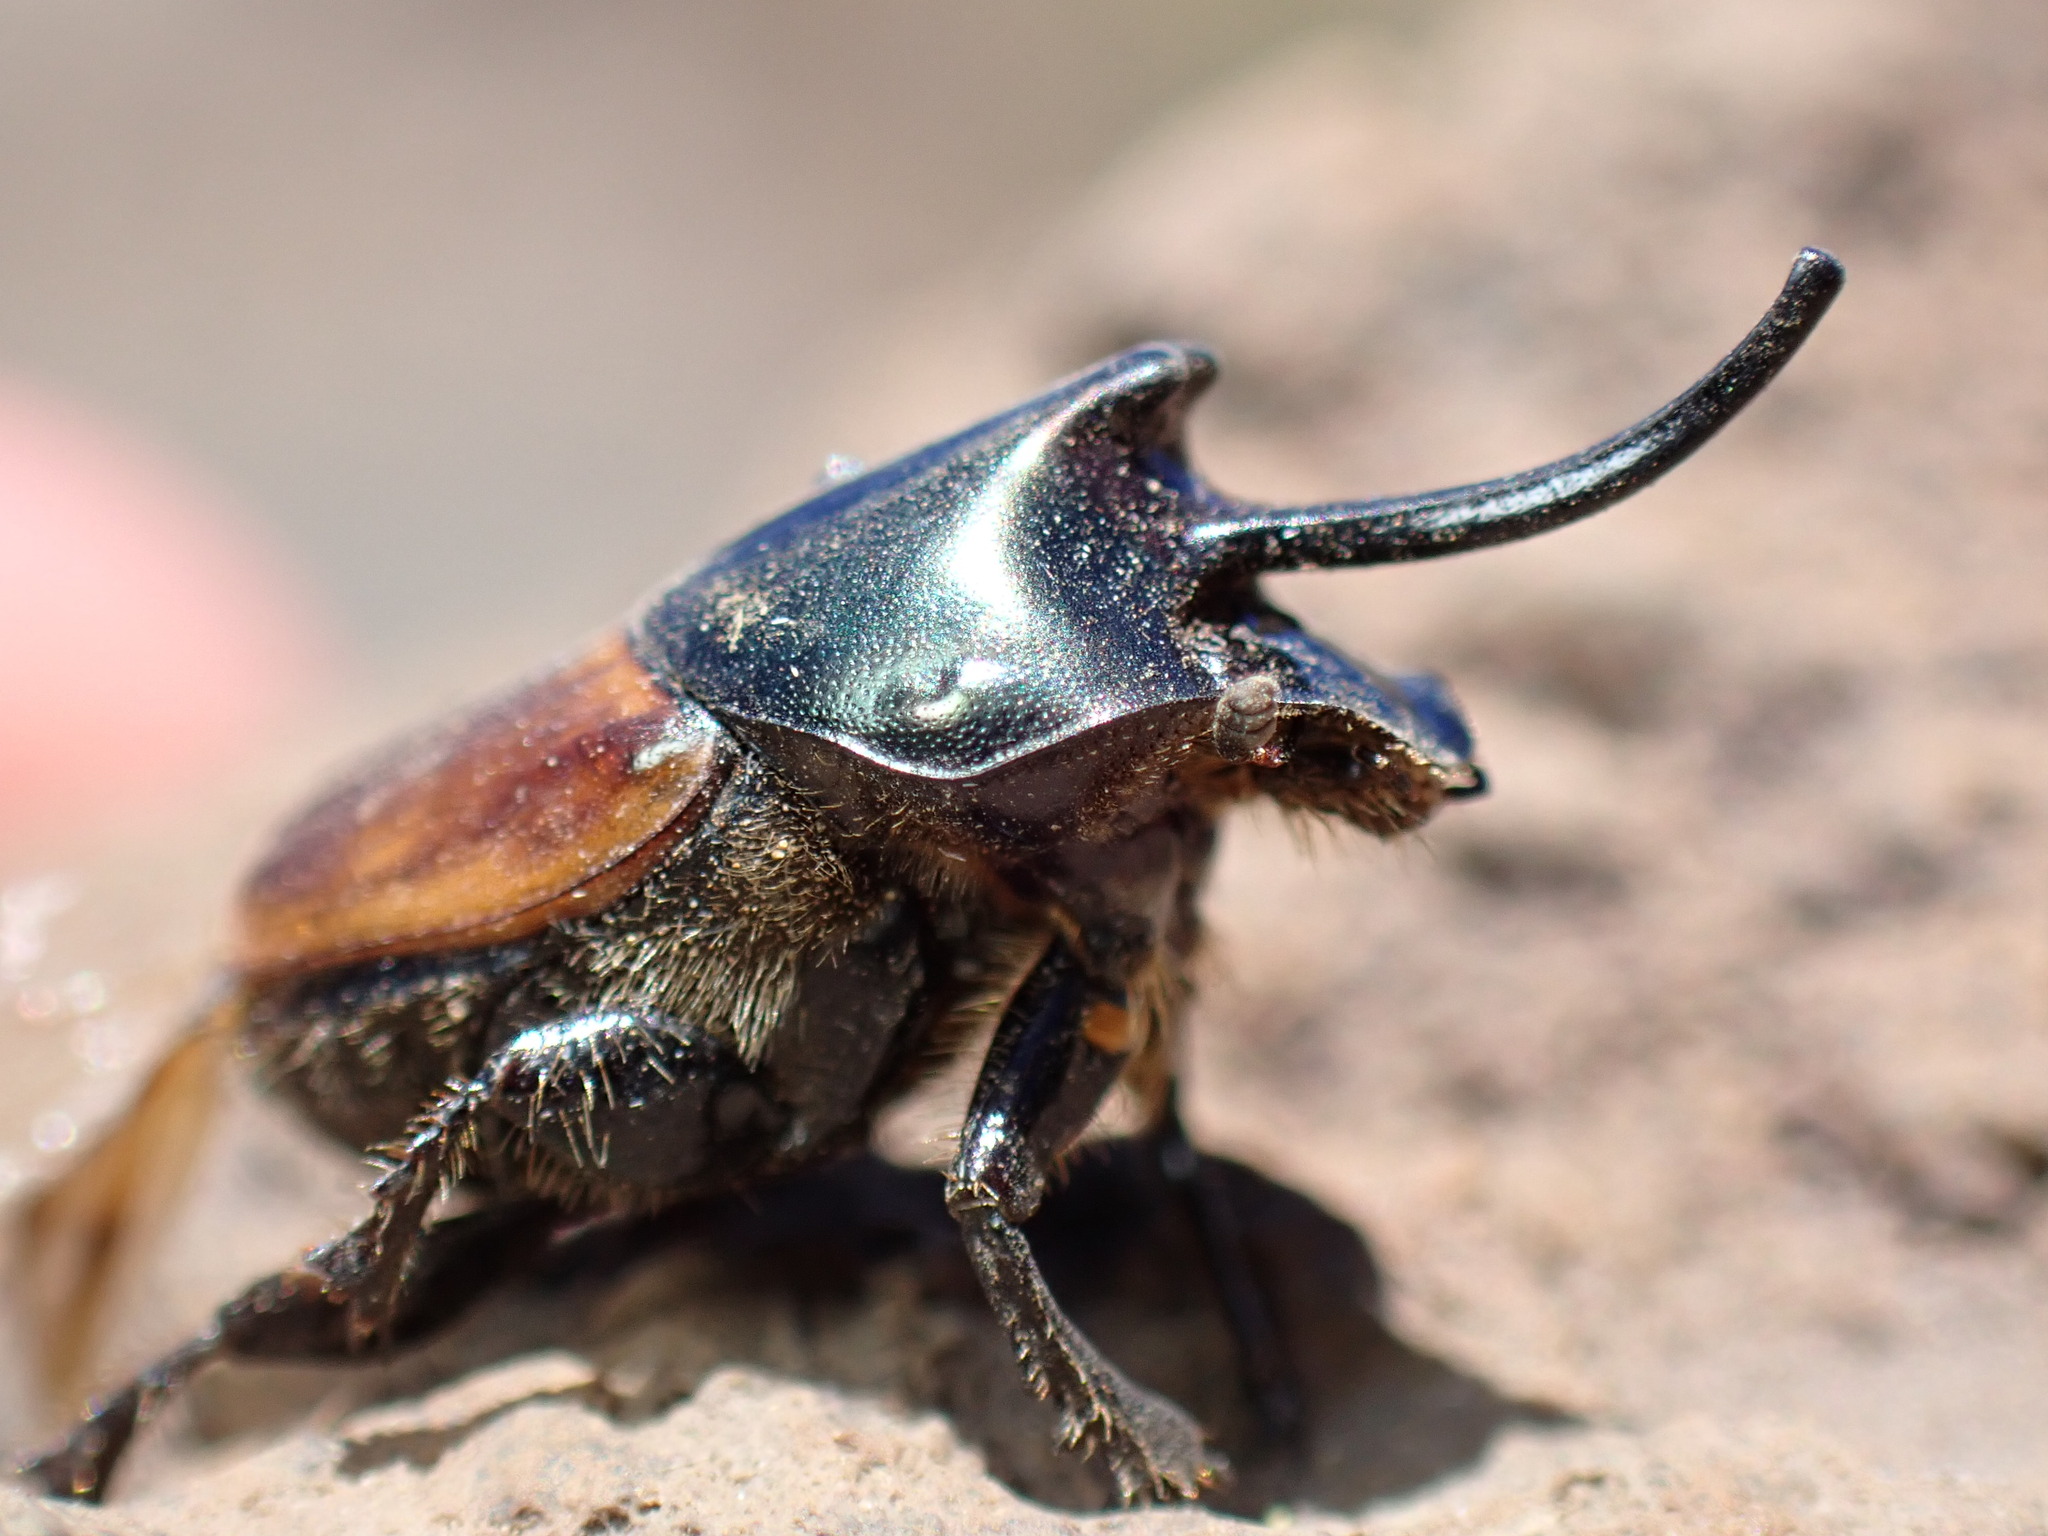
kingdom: Animalia
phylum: Arthropoda
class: Insecta
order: Coleoptera
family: Scarabaeidae
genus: Onthophagus
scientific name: Onthophagus nigriventris
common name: Coastal dung beetle
